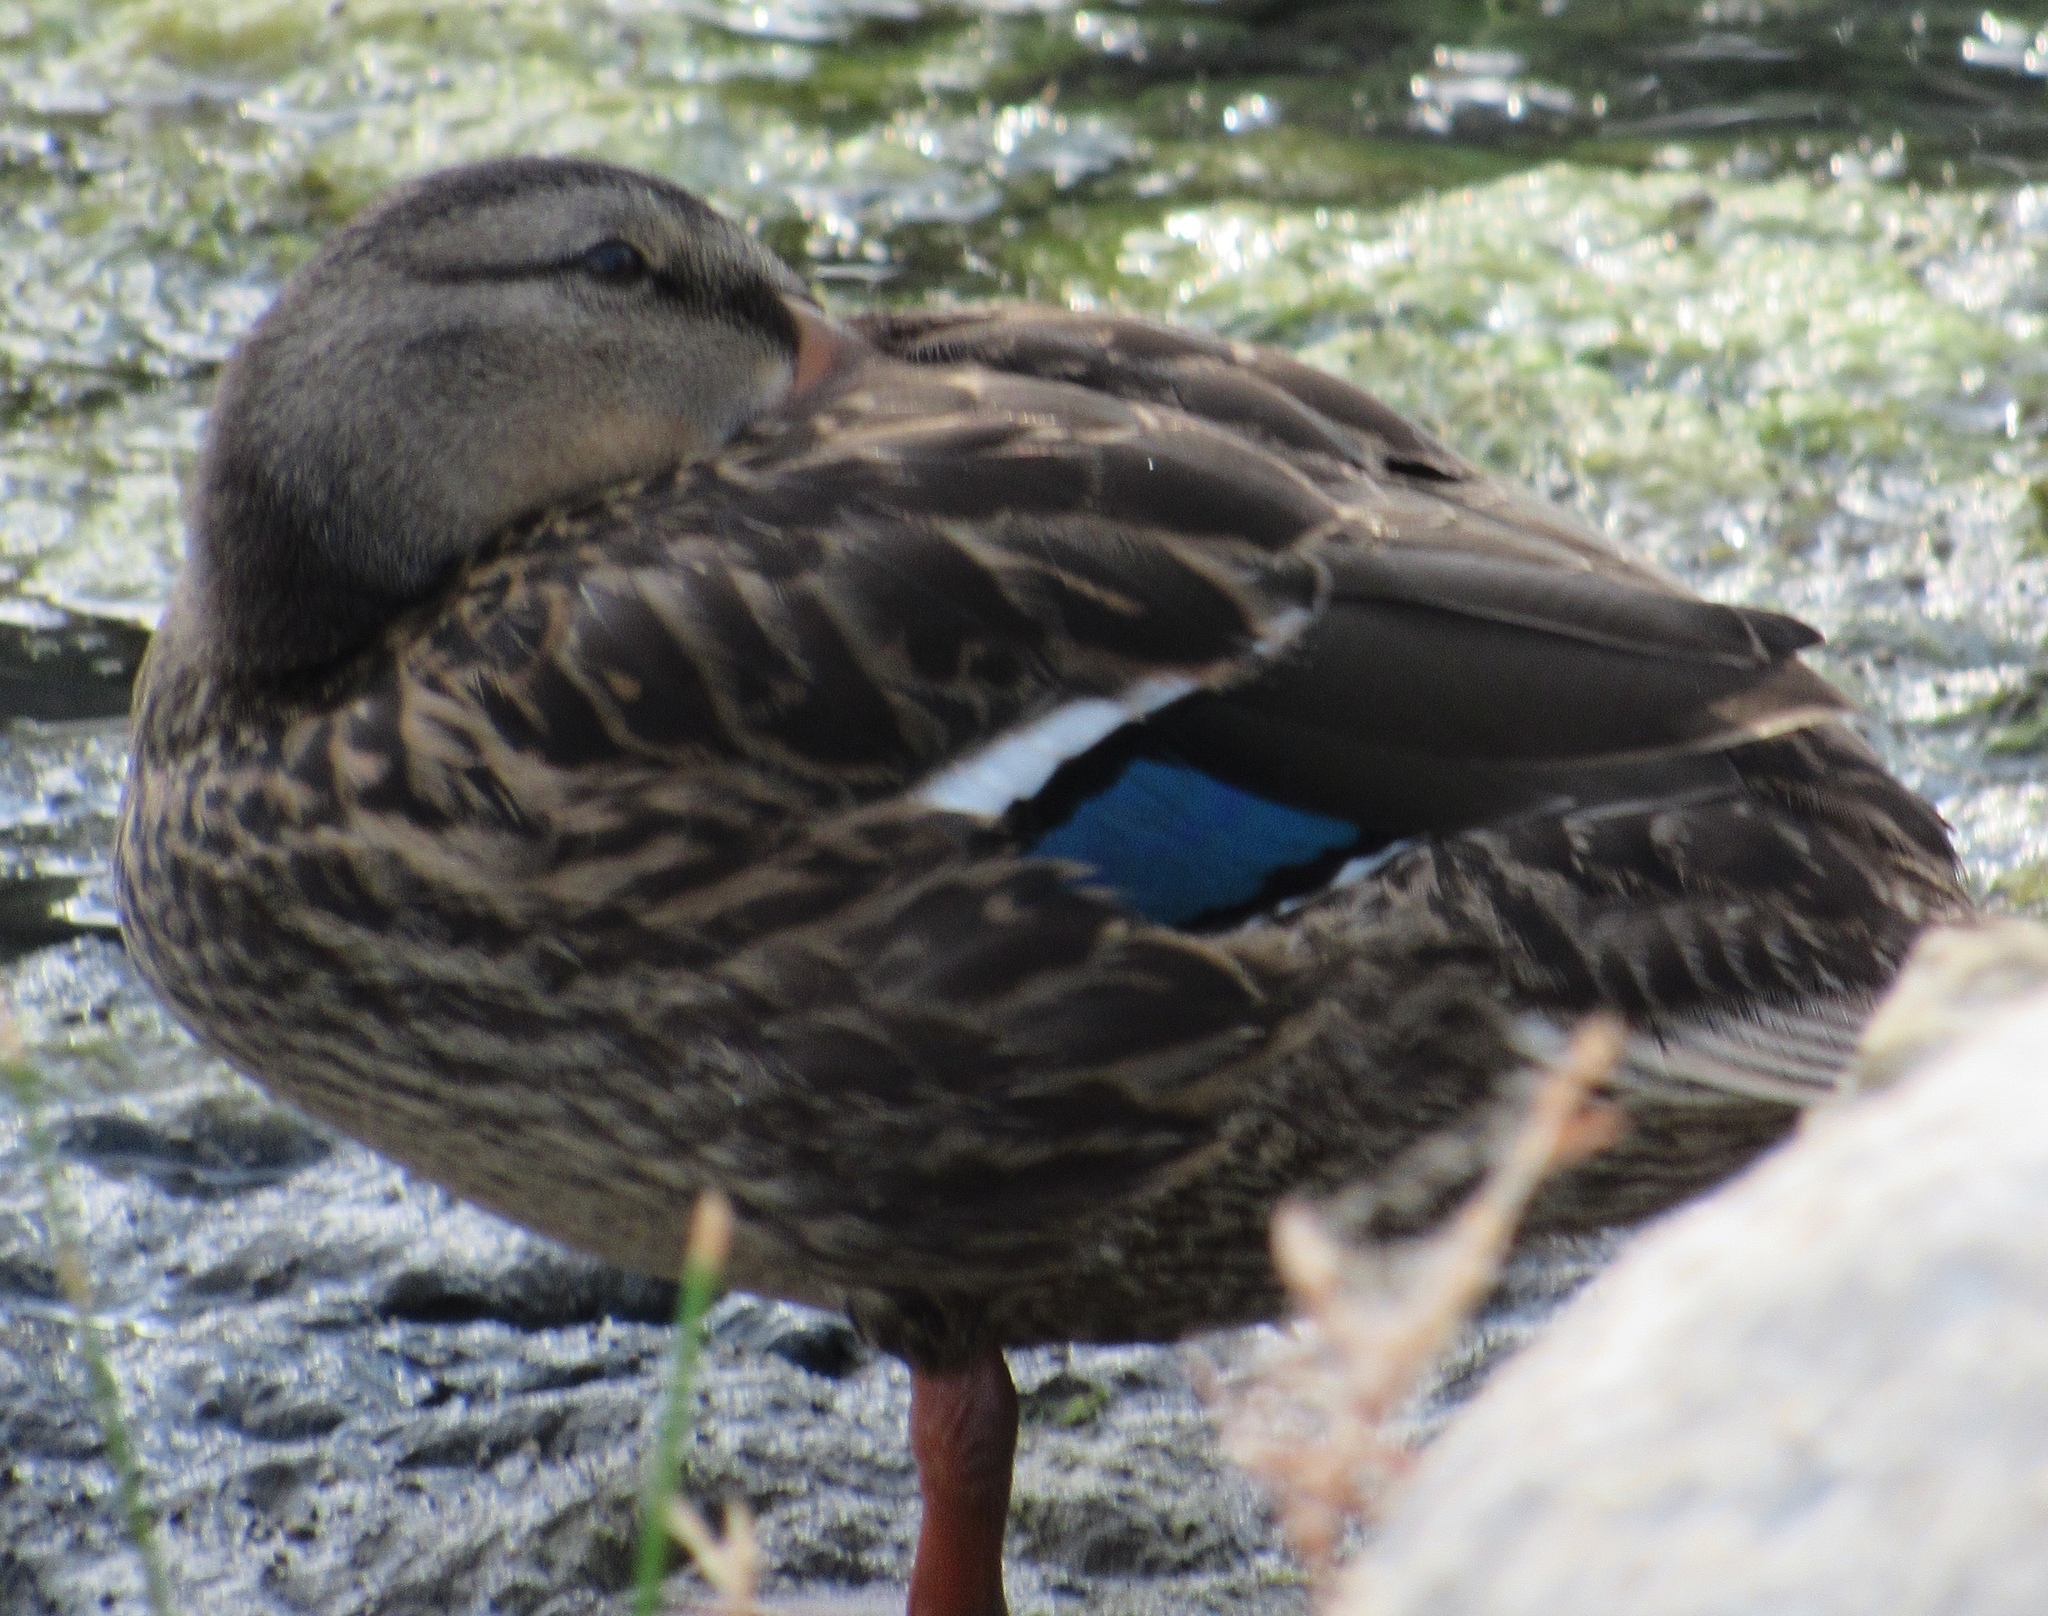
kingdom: Animalia
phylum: Chordata
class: Aves
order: Anseriformes
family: Anatidae
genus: Anas
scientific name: Anas platyrhynchos
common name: Mallard
